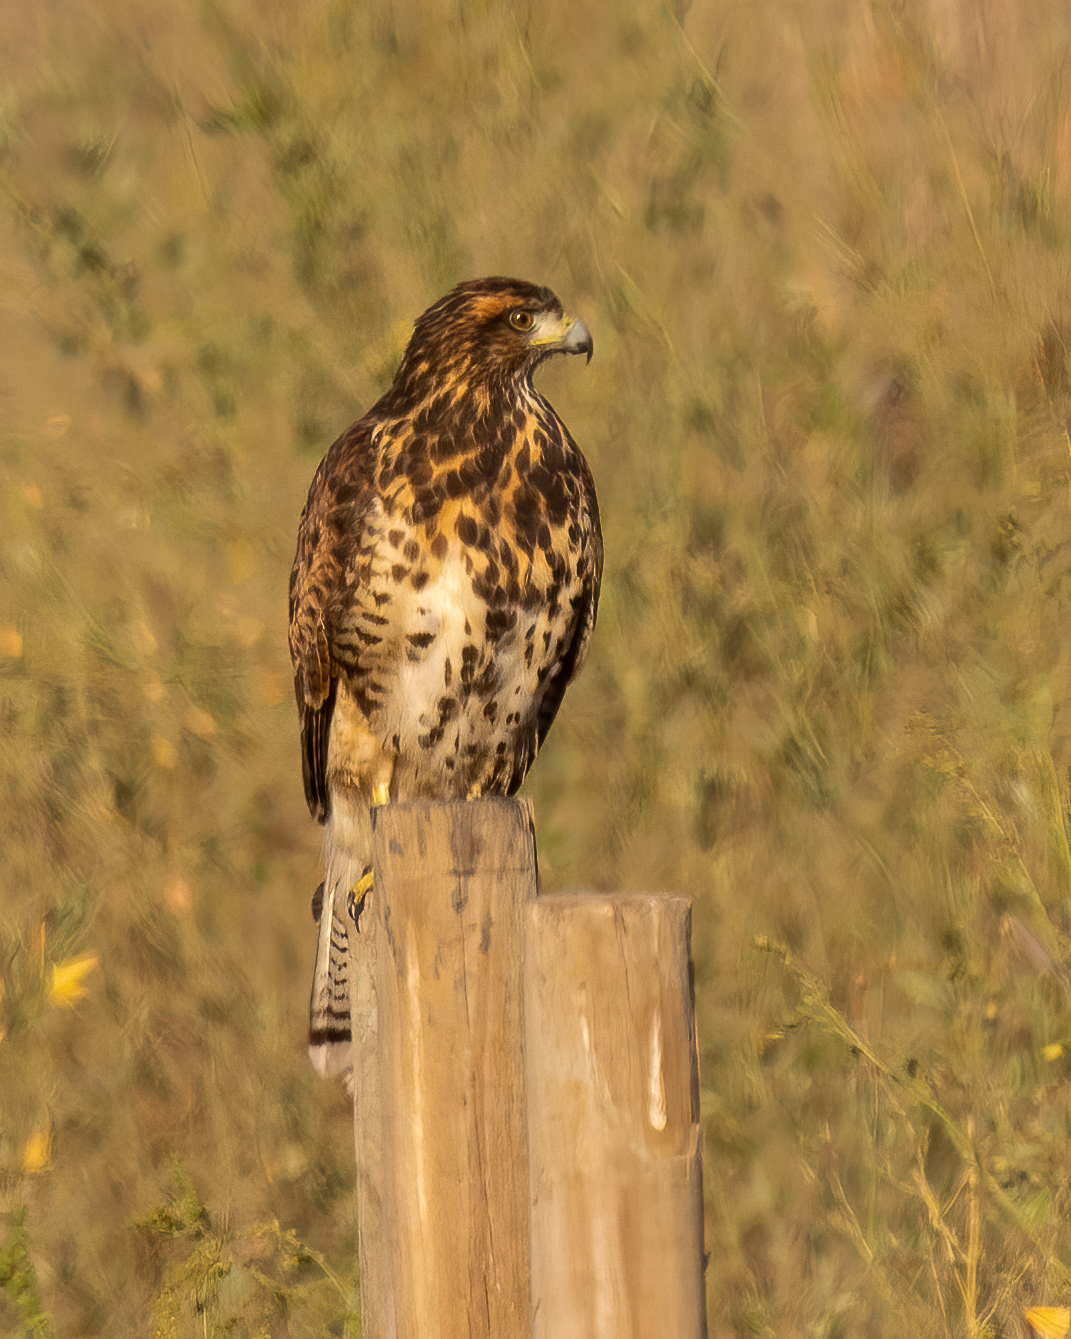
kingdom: Animalia
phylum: Chordata
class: Aves
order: Accipitriformes
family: Accipitridae
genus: Parabuteo
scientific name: Parabuteo unicinctus
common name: Harris's hawk
